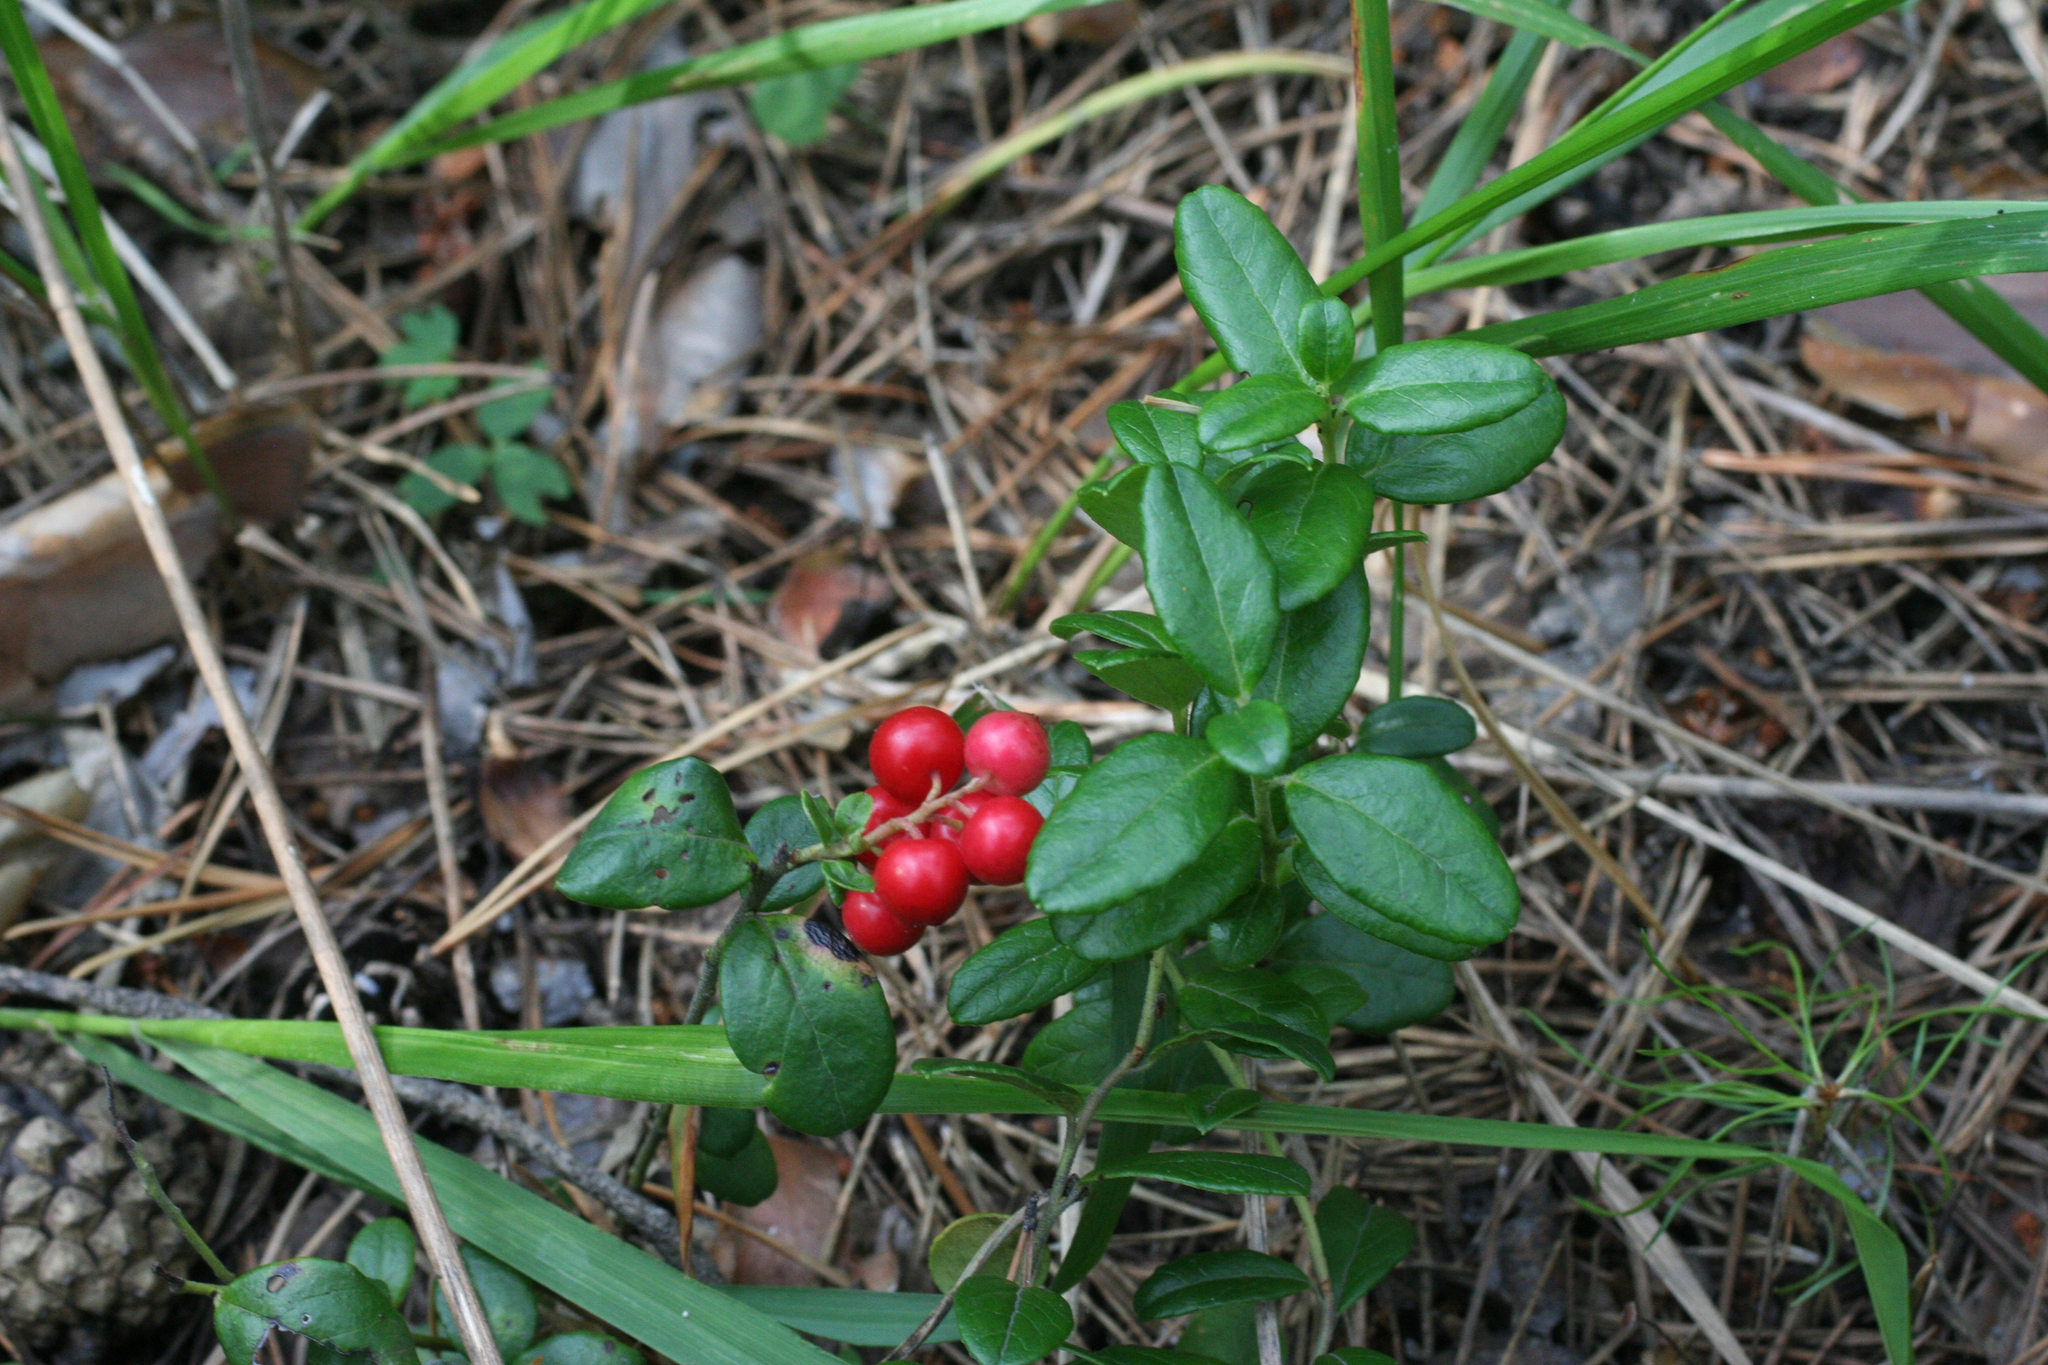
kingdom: Plantae
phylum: Tracheophyta
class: Magnoliopsida
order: Ericales
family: Ericaceae
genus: Vaccinium
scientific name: Vaccinium vitis-idaea
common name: Cowberry
